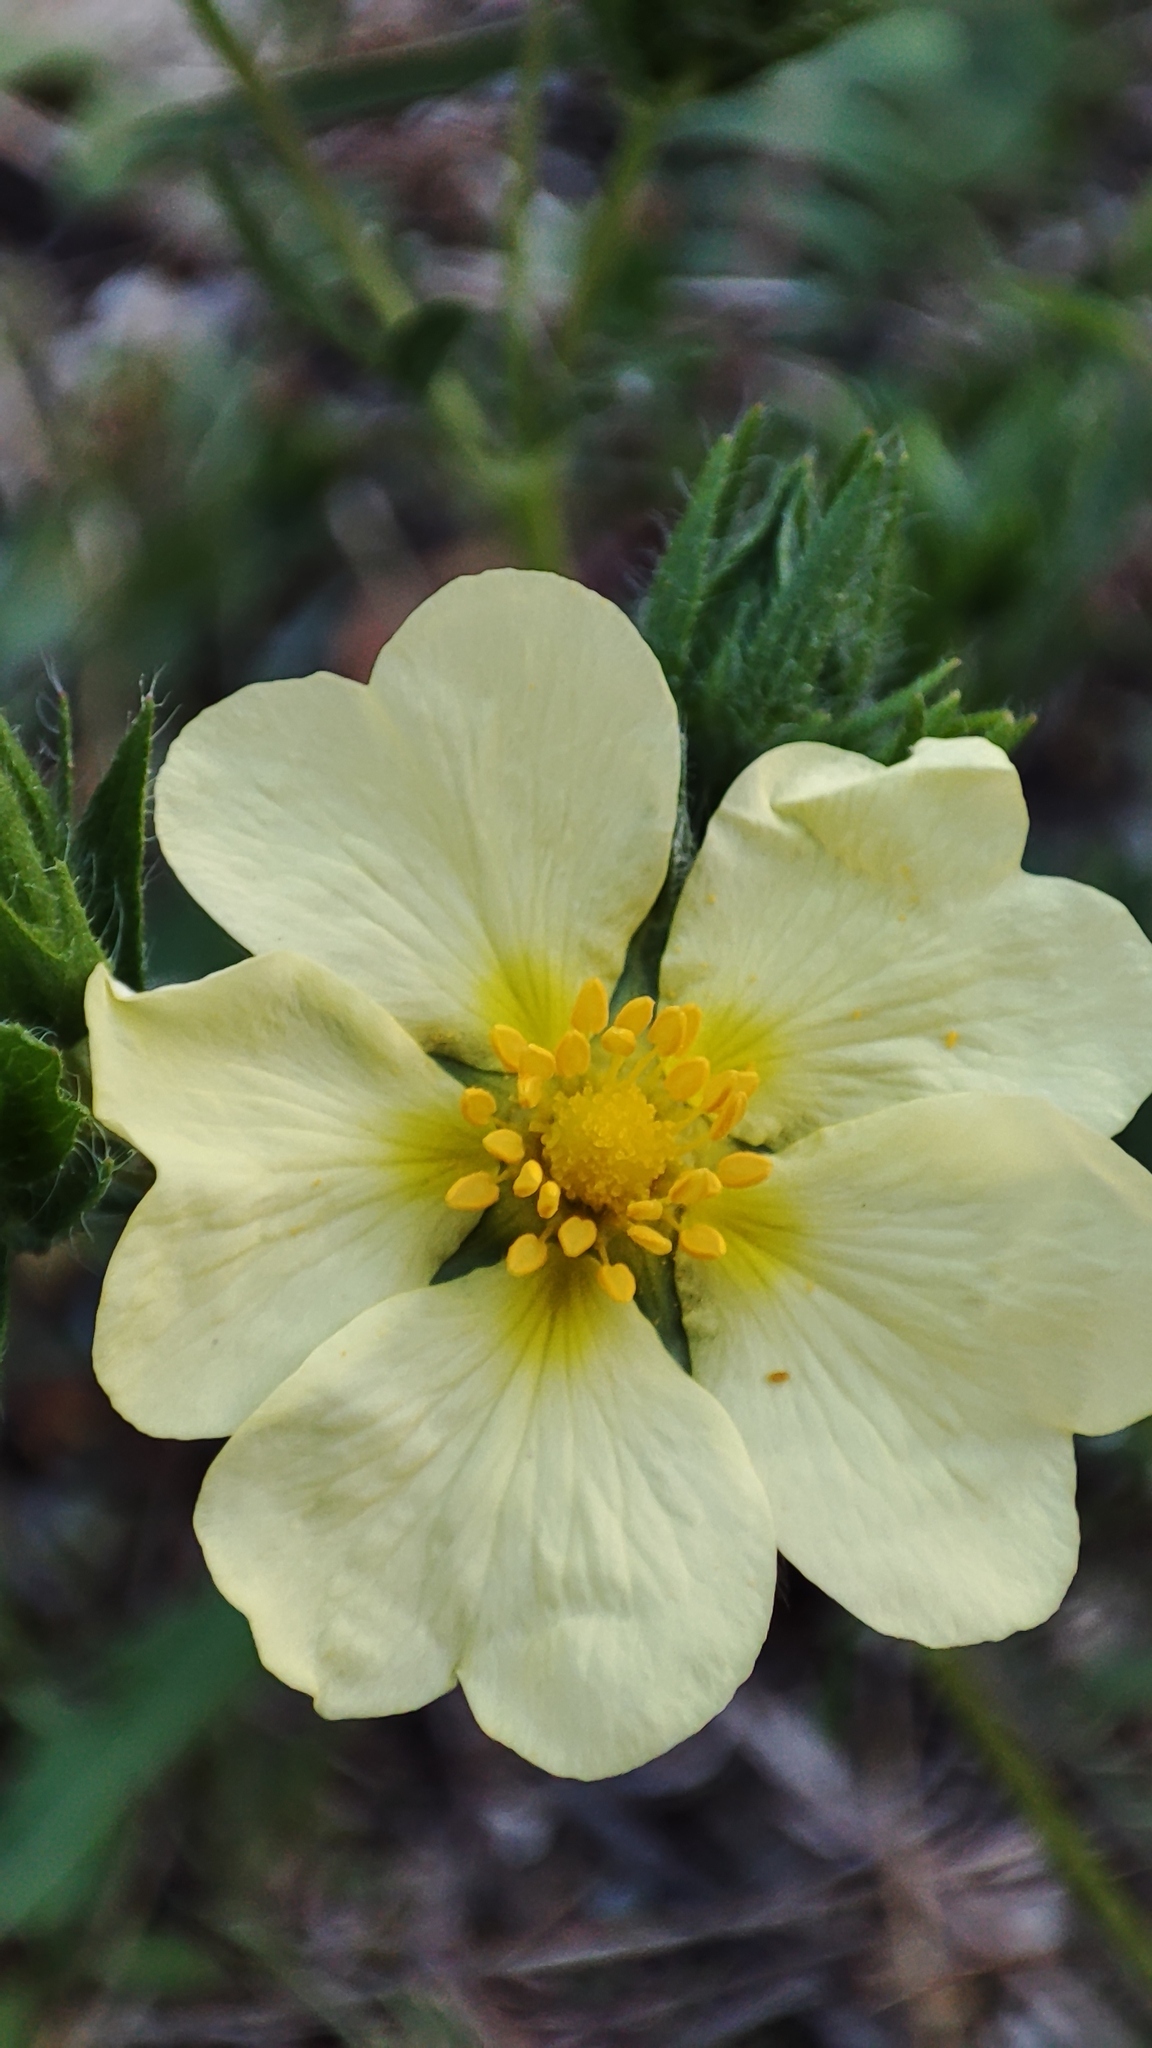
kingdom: Plantae
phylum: Tracheophyta
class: Magnoliopsida
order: Rosales
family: Rosaceae
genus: Potentilla
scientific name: Potentilla recta
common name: Sulphur cinquefoil
